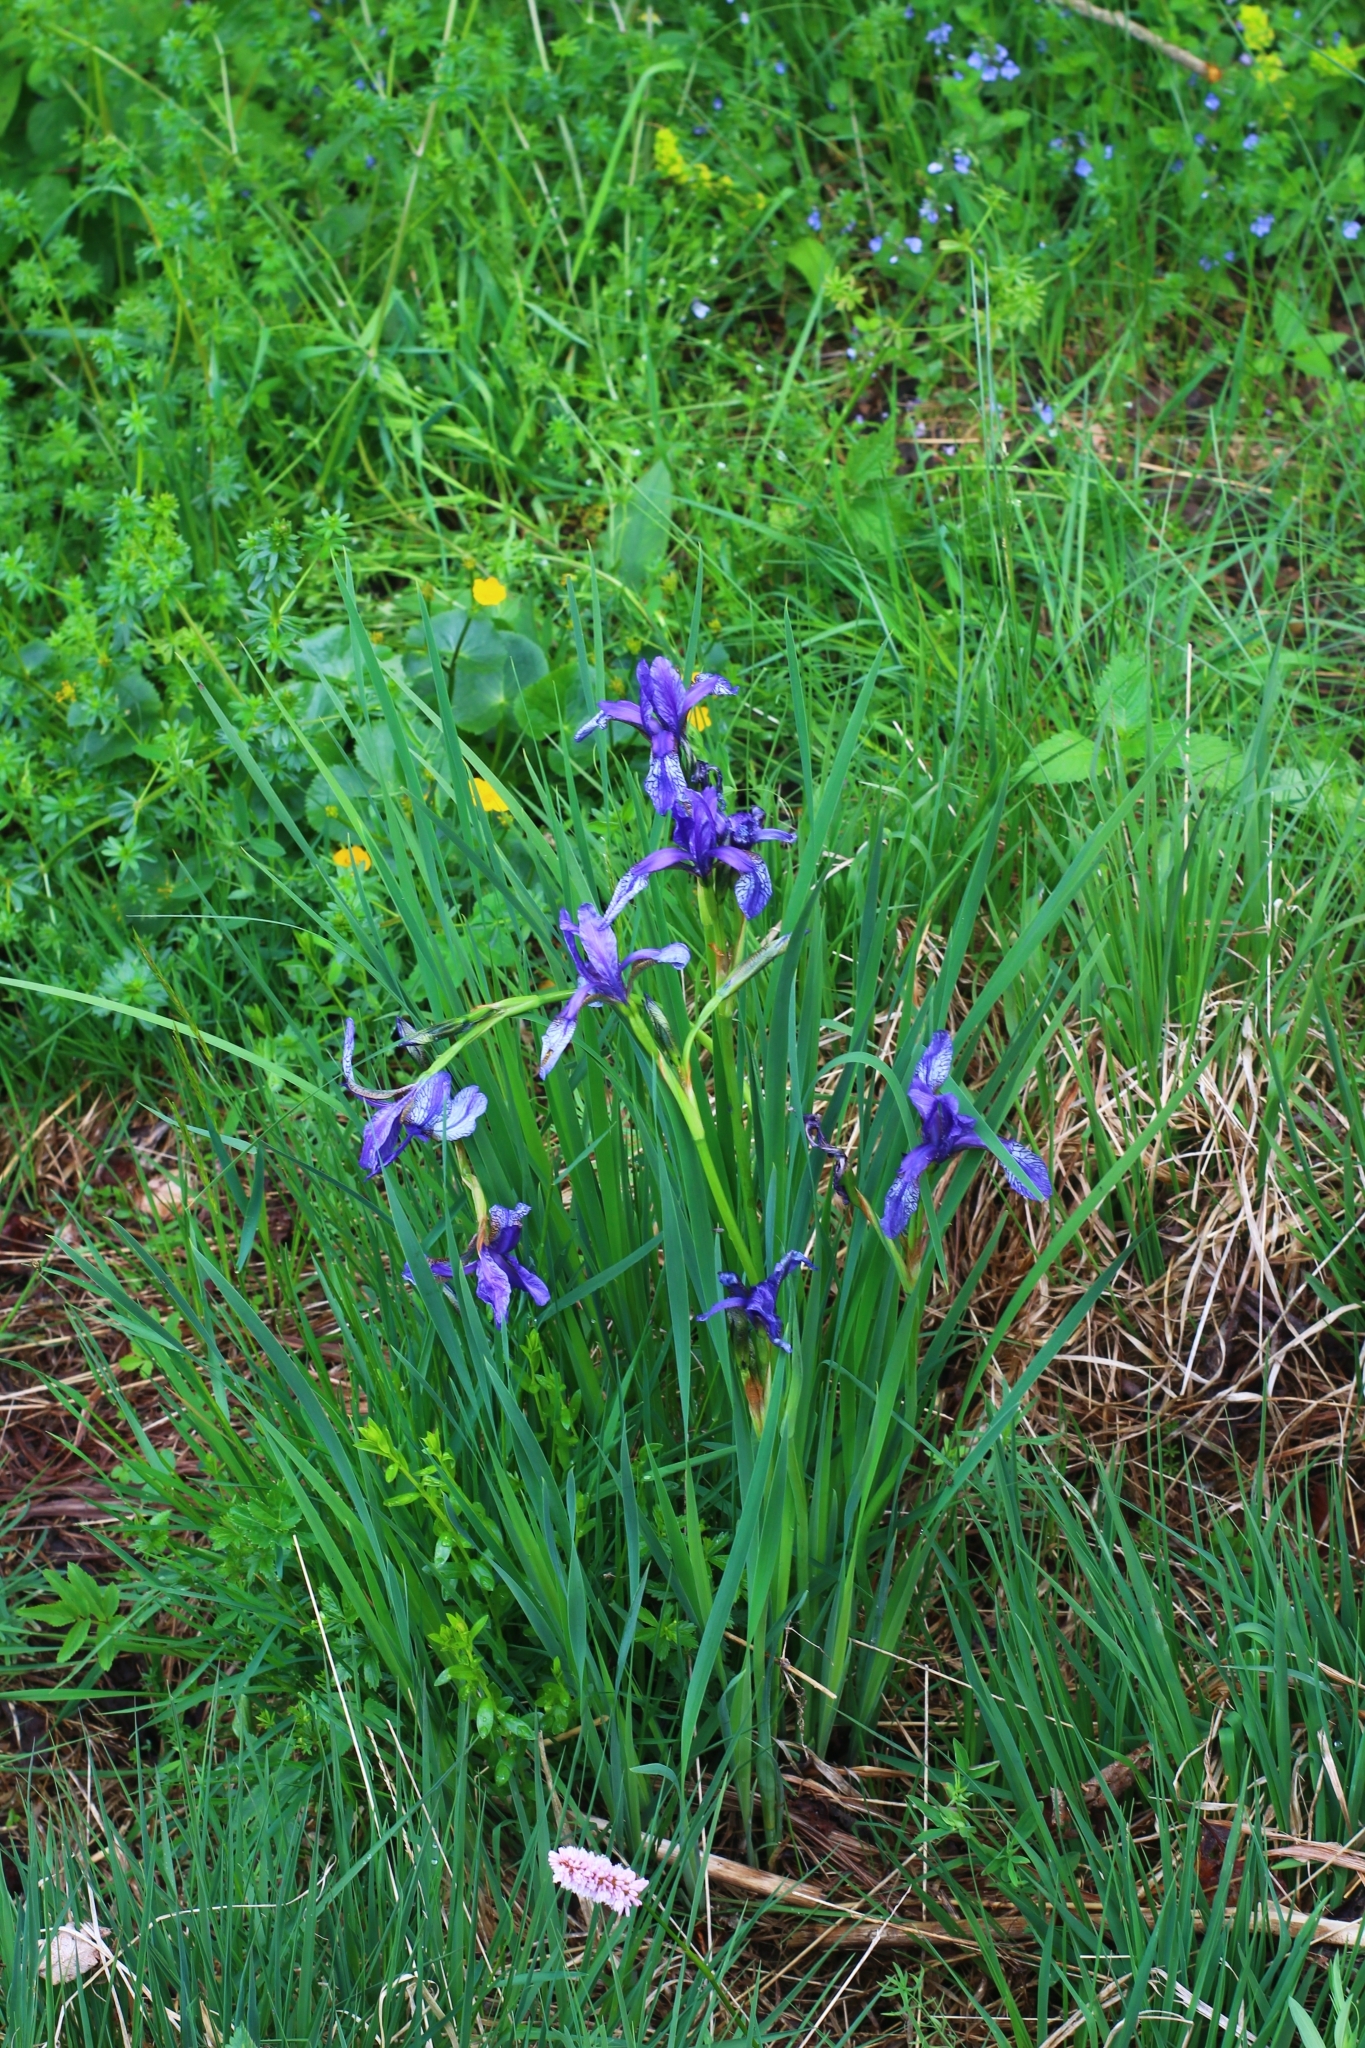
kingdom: Plantae
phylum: Tracheophyta
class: Liliopsida
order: Asparagales
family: Iridaceae
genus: Iris
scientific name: Iris sibirica
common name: Siberian iris
